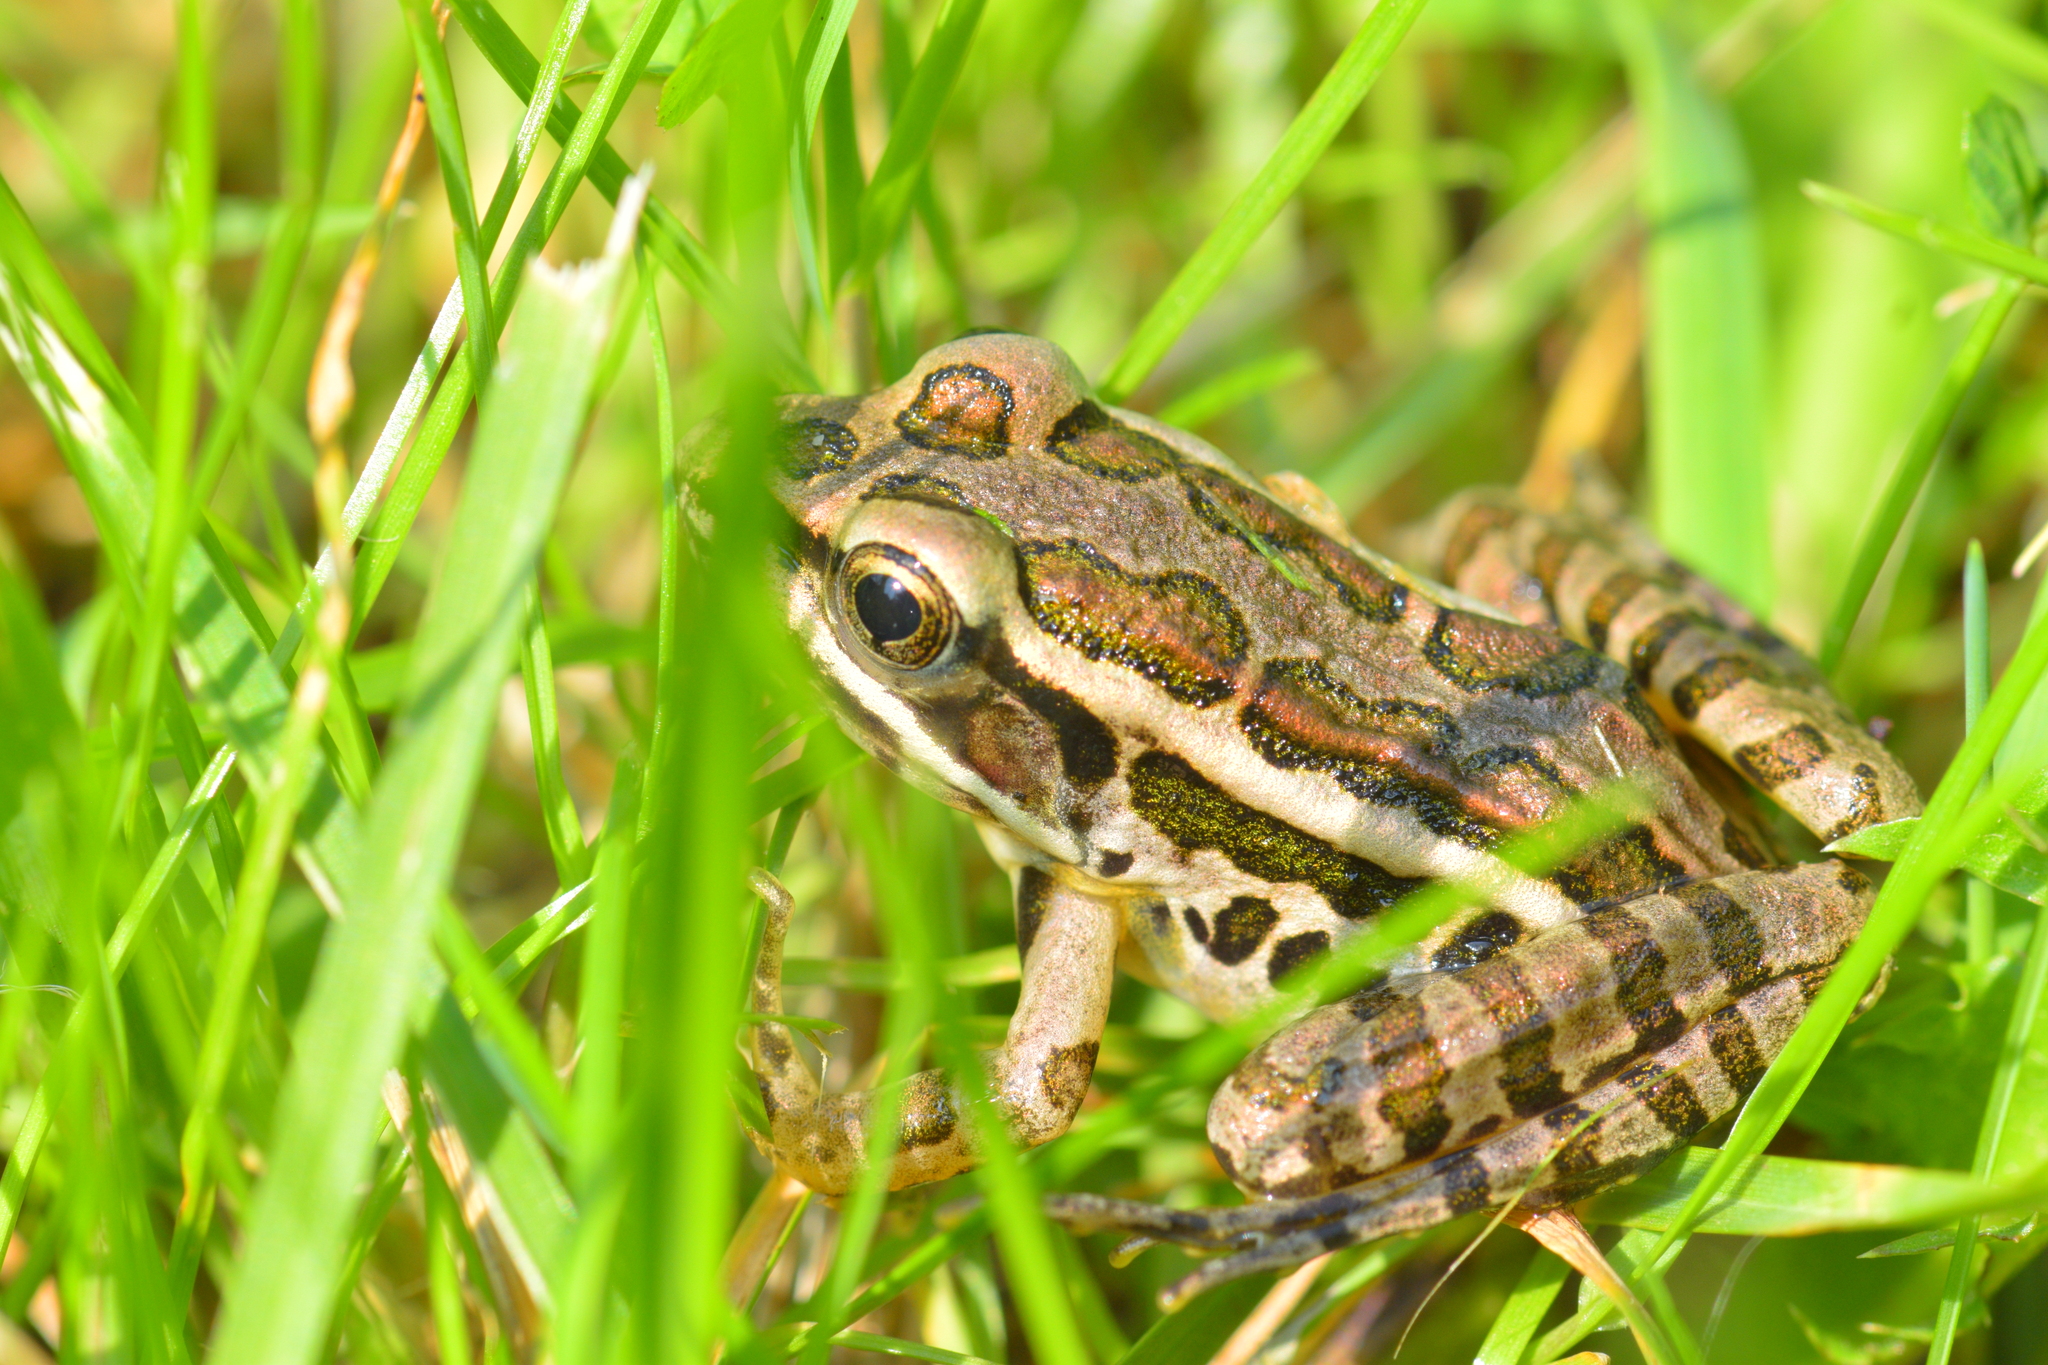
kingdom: Animalia
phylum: Chordata
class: Amphibia
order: Anura
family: Ranidae
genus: Lithobates
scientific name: Lithobates palustris
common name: Pickerel frog
